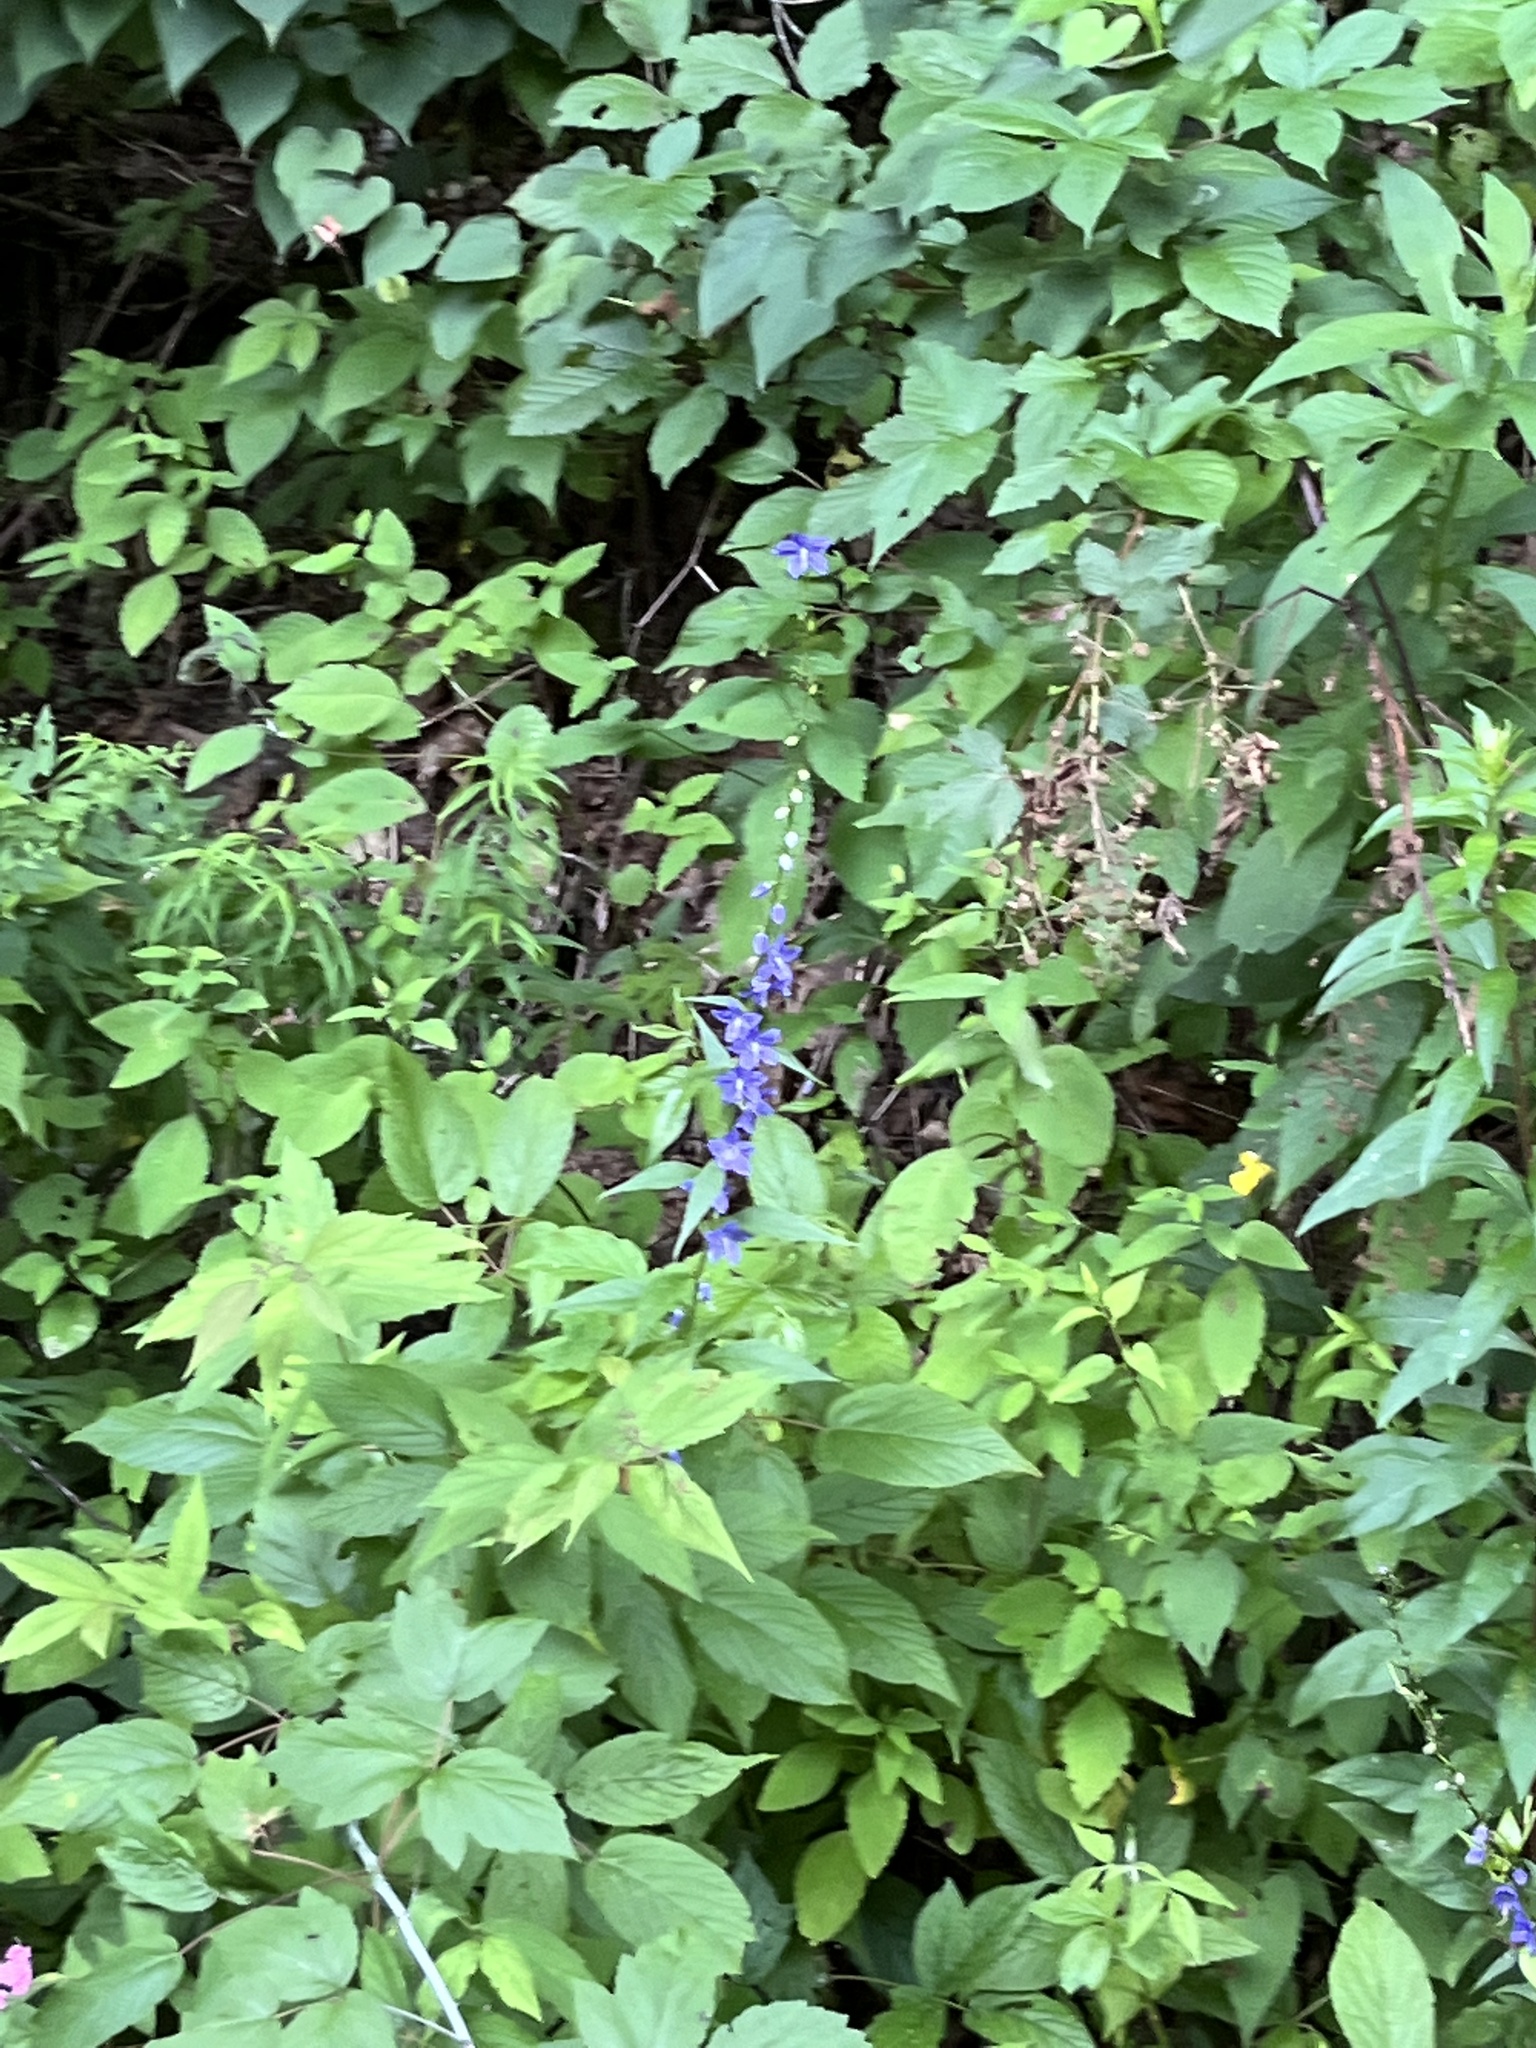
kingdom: Plantae
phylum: Tracheophyta
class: Magnoliopsida
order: Asterales
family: Campanulaceae
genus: Campanulastrum
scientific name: Campanulastrum americanum
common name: American bellflower
